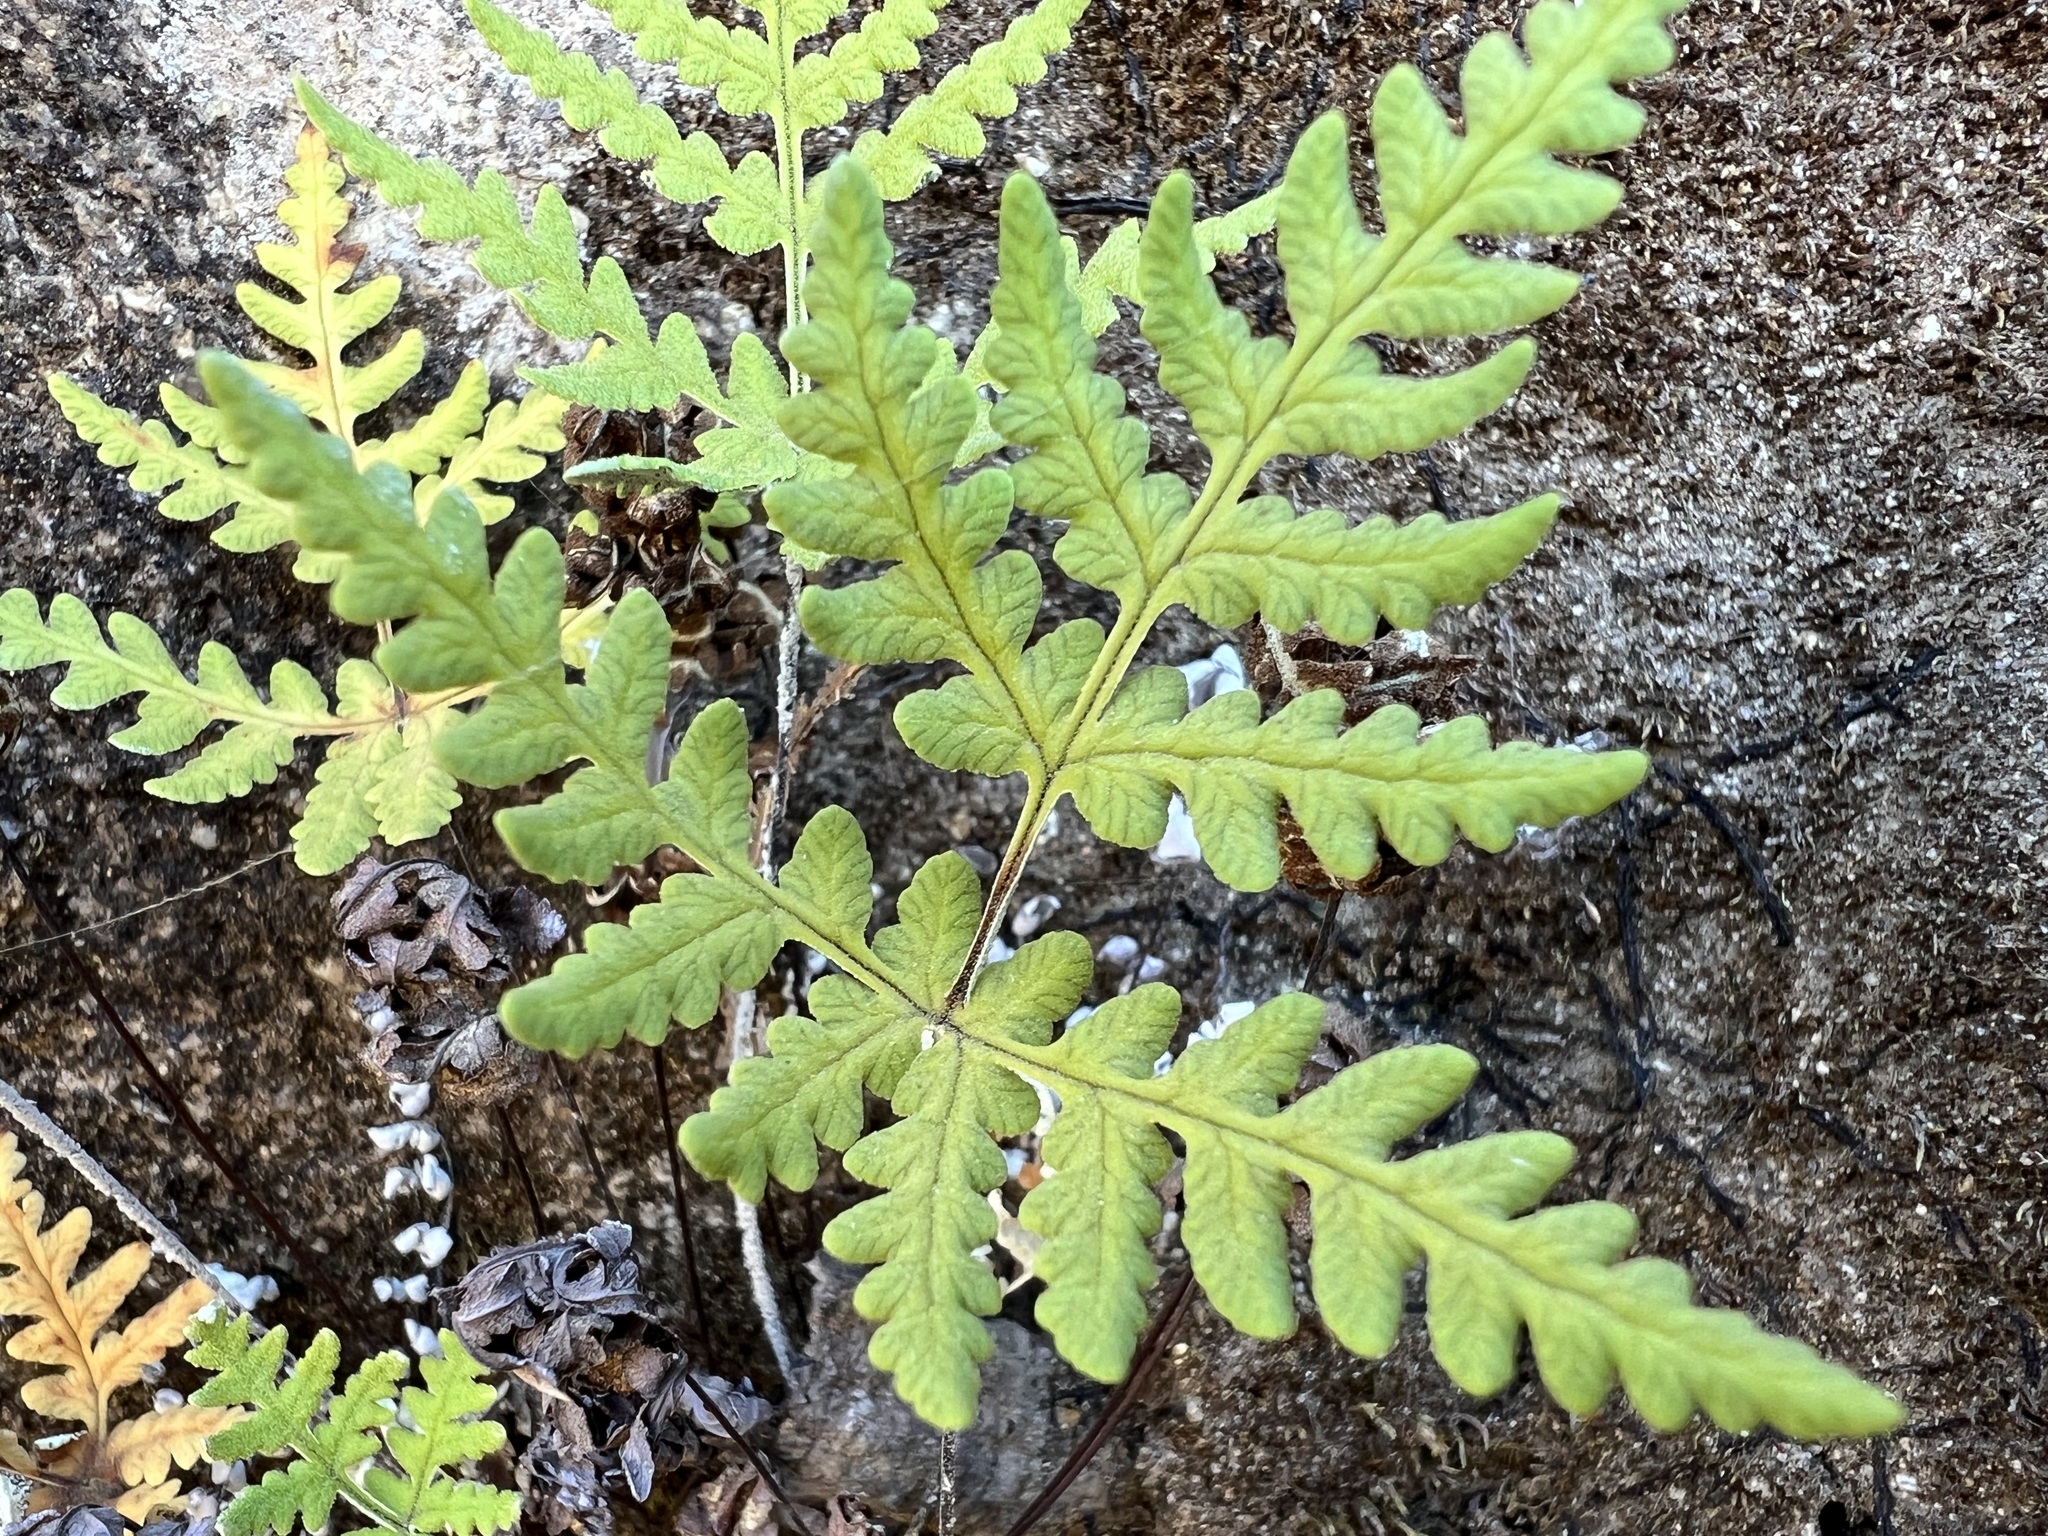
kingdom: Plantae
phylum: Tracheophyta
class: Polypodiopsida
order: Polypodiales
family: Pteridaceae
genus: Pentagramma
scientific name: Pentagramma maxonii
